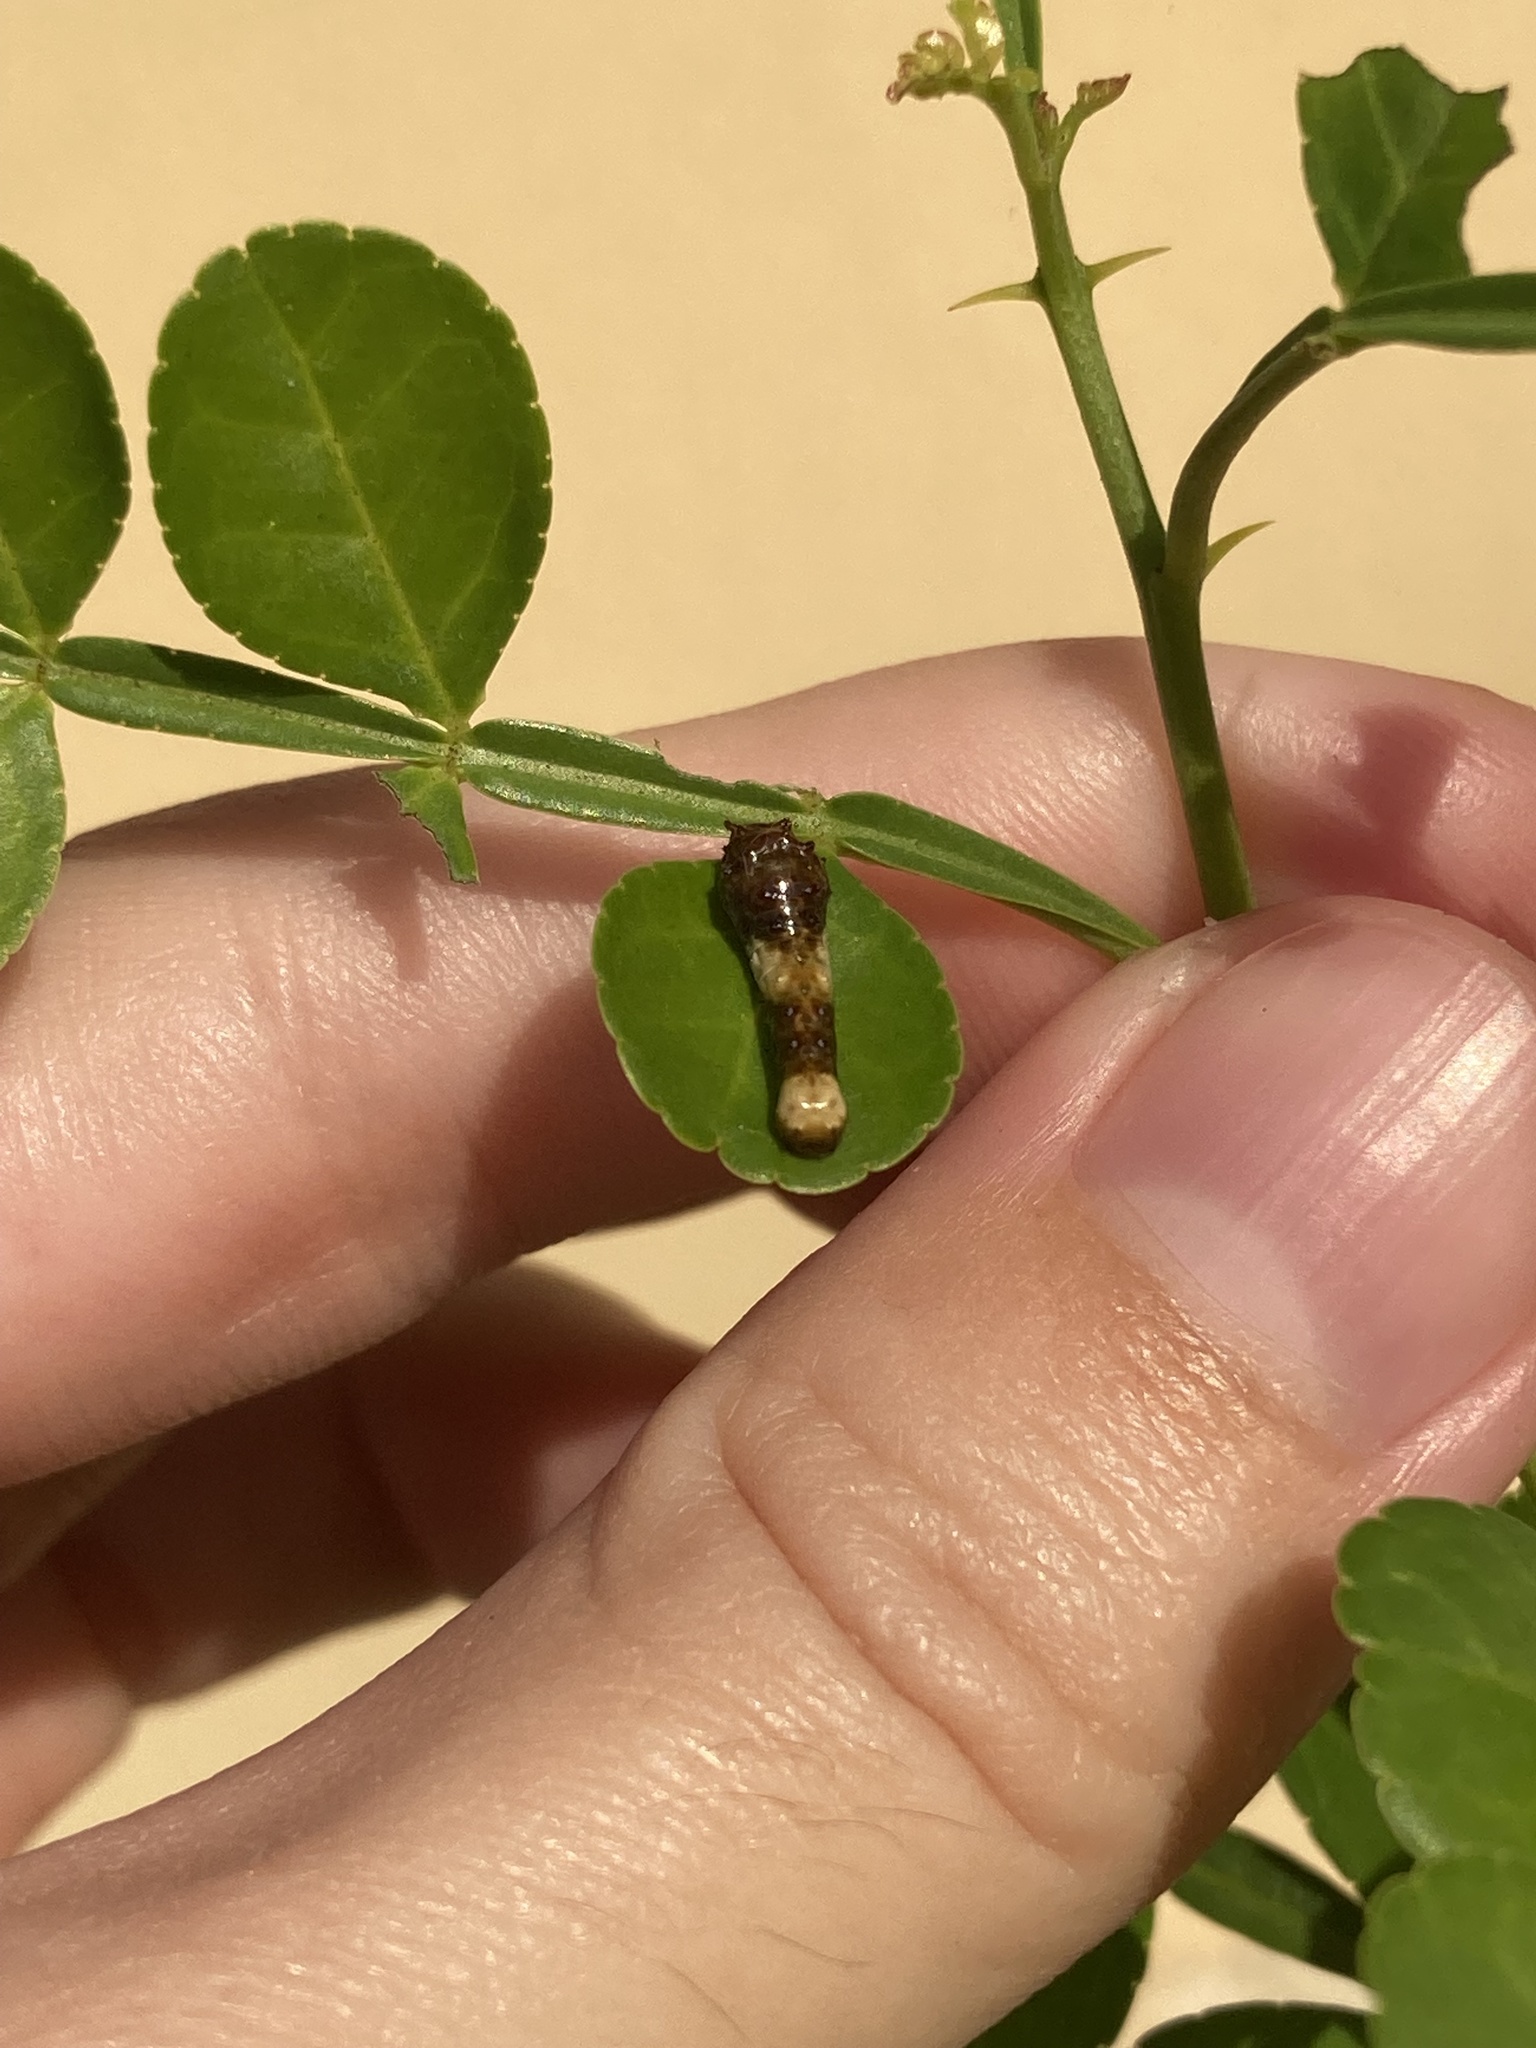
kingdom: Animalia
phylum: Arthropoda
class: Insecta
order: Lepidoptera
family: Papilionidae
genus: Papilio
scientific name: Papilio cresphontes
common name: Giant swallowtail
